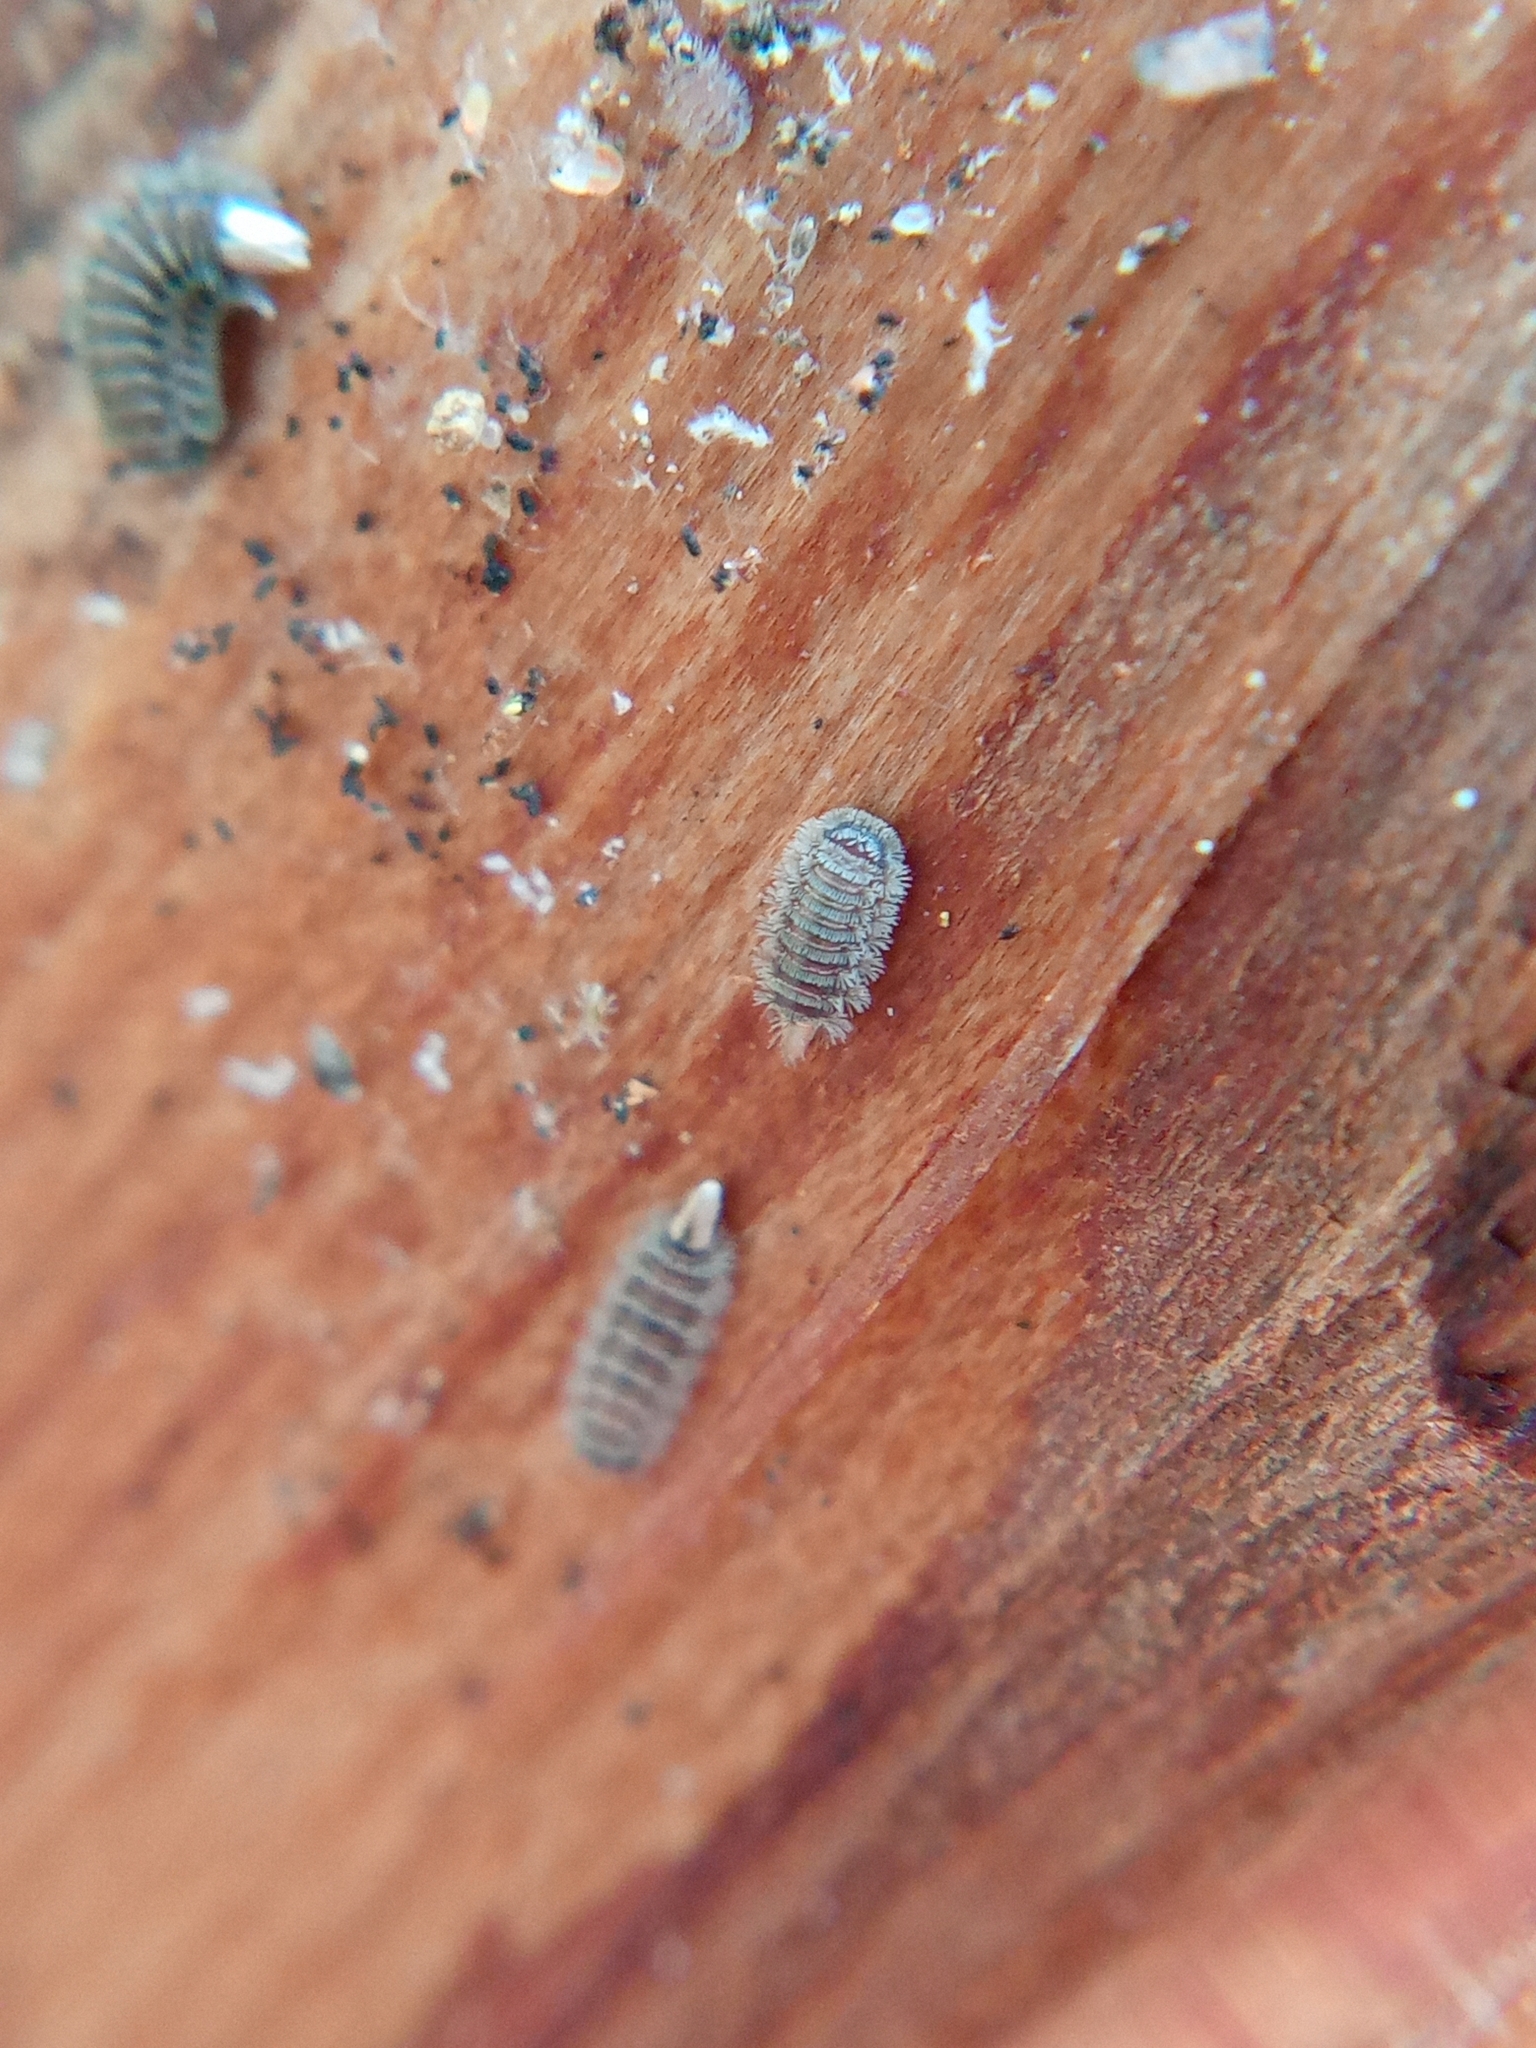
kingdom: Animalia
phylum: Arthropoda
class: Diplopoda
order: Polyxenida
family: Polyxenidae
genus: Polyxenus
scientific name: Polyxenus lagurus
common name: Bristly millipede
